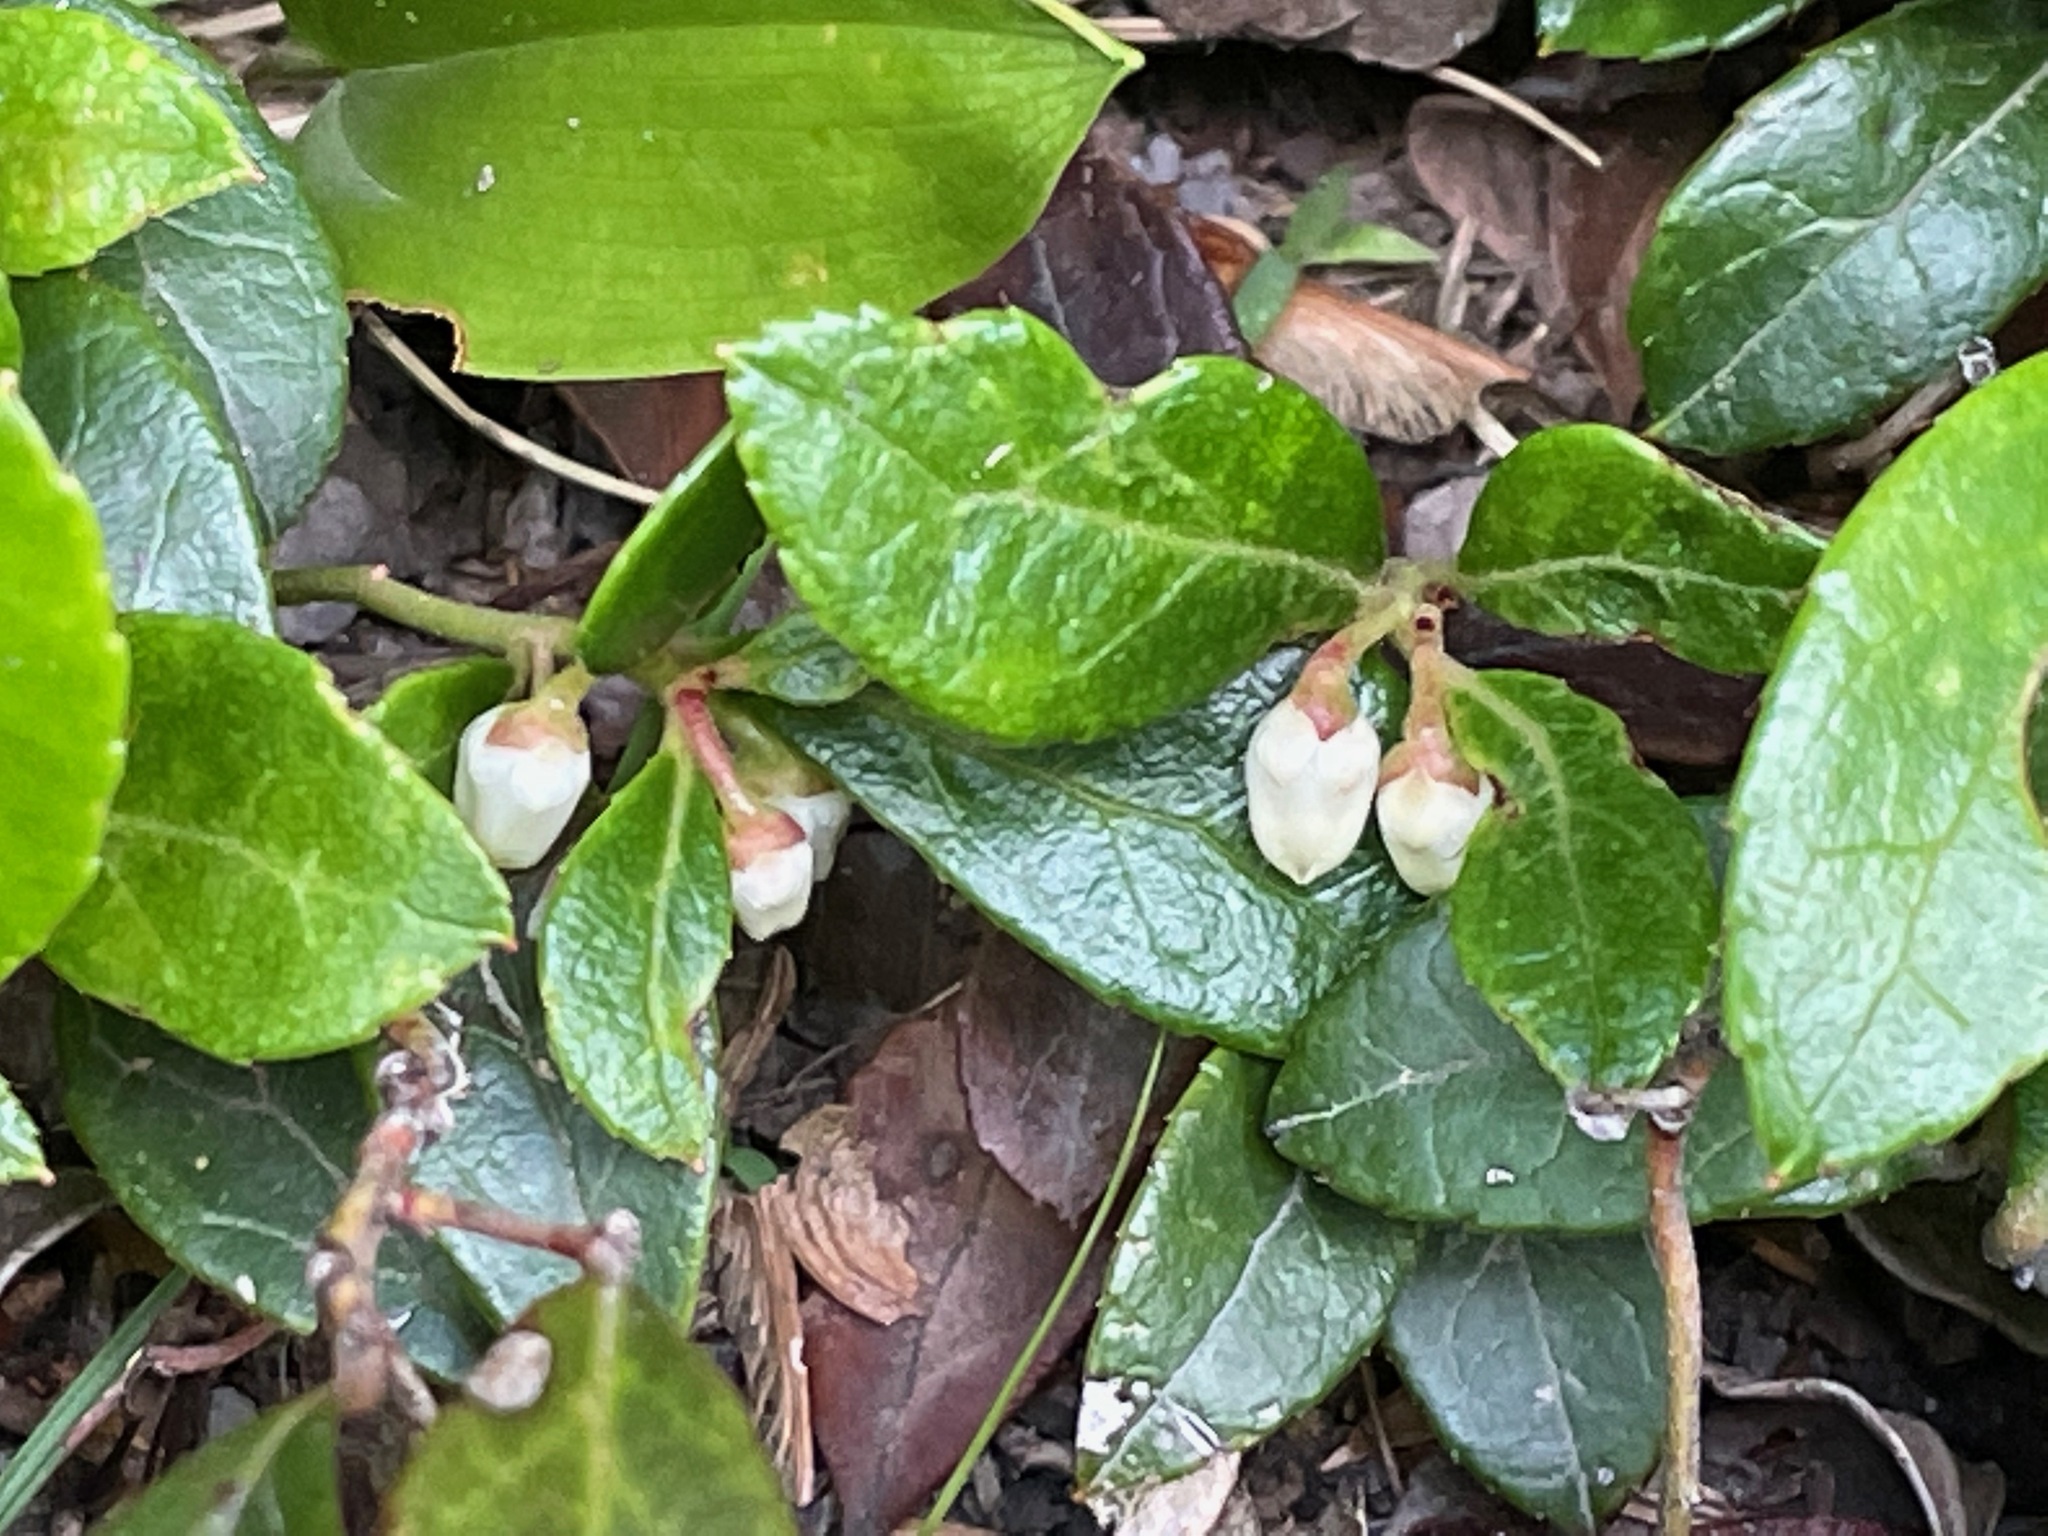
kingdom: Plantae
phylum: Tracheophyta
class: Magnoliopsida
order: Ericales
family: Ericaceae
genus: Gaultheria
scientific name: Gaultheria procumbens
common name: Checkerberry
